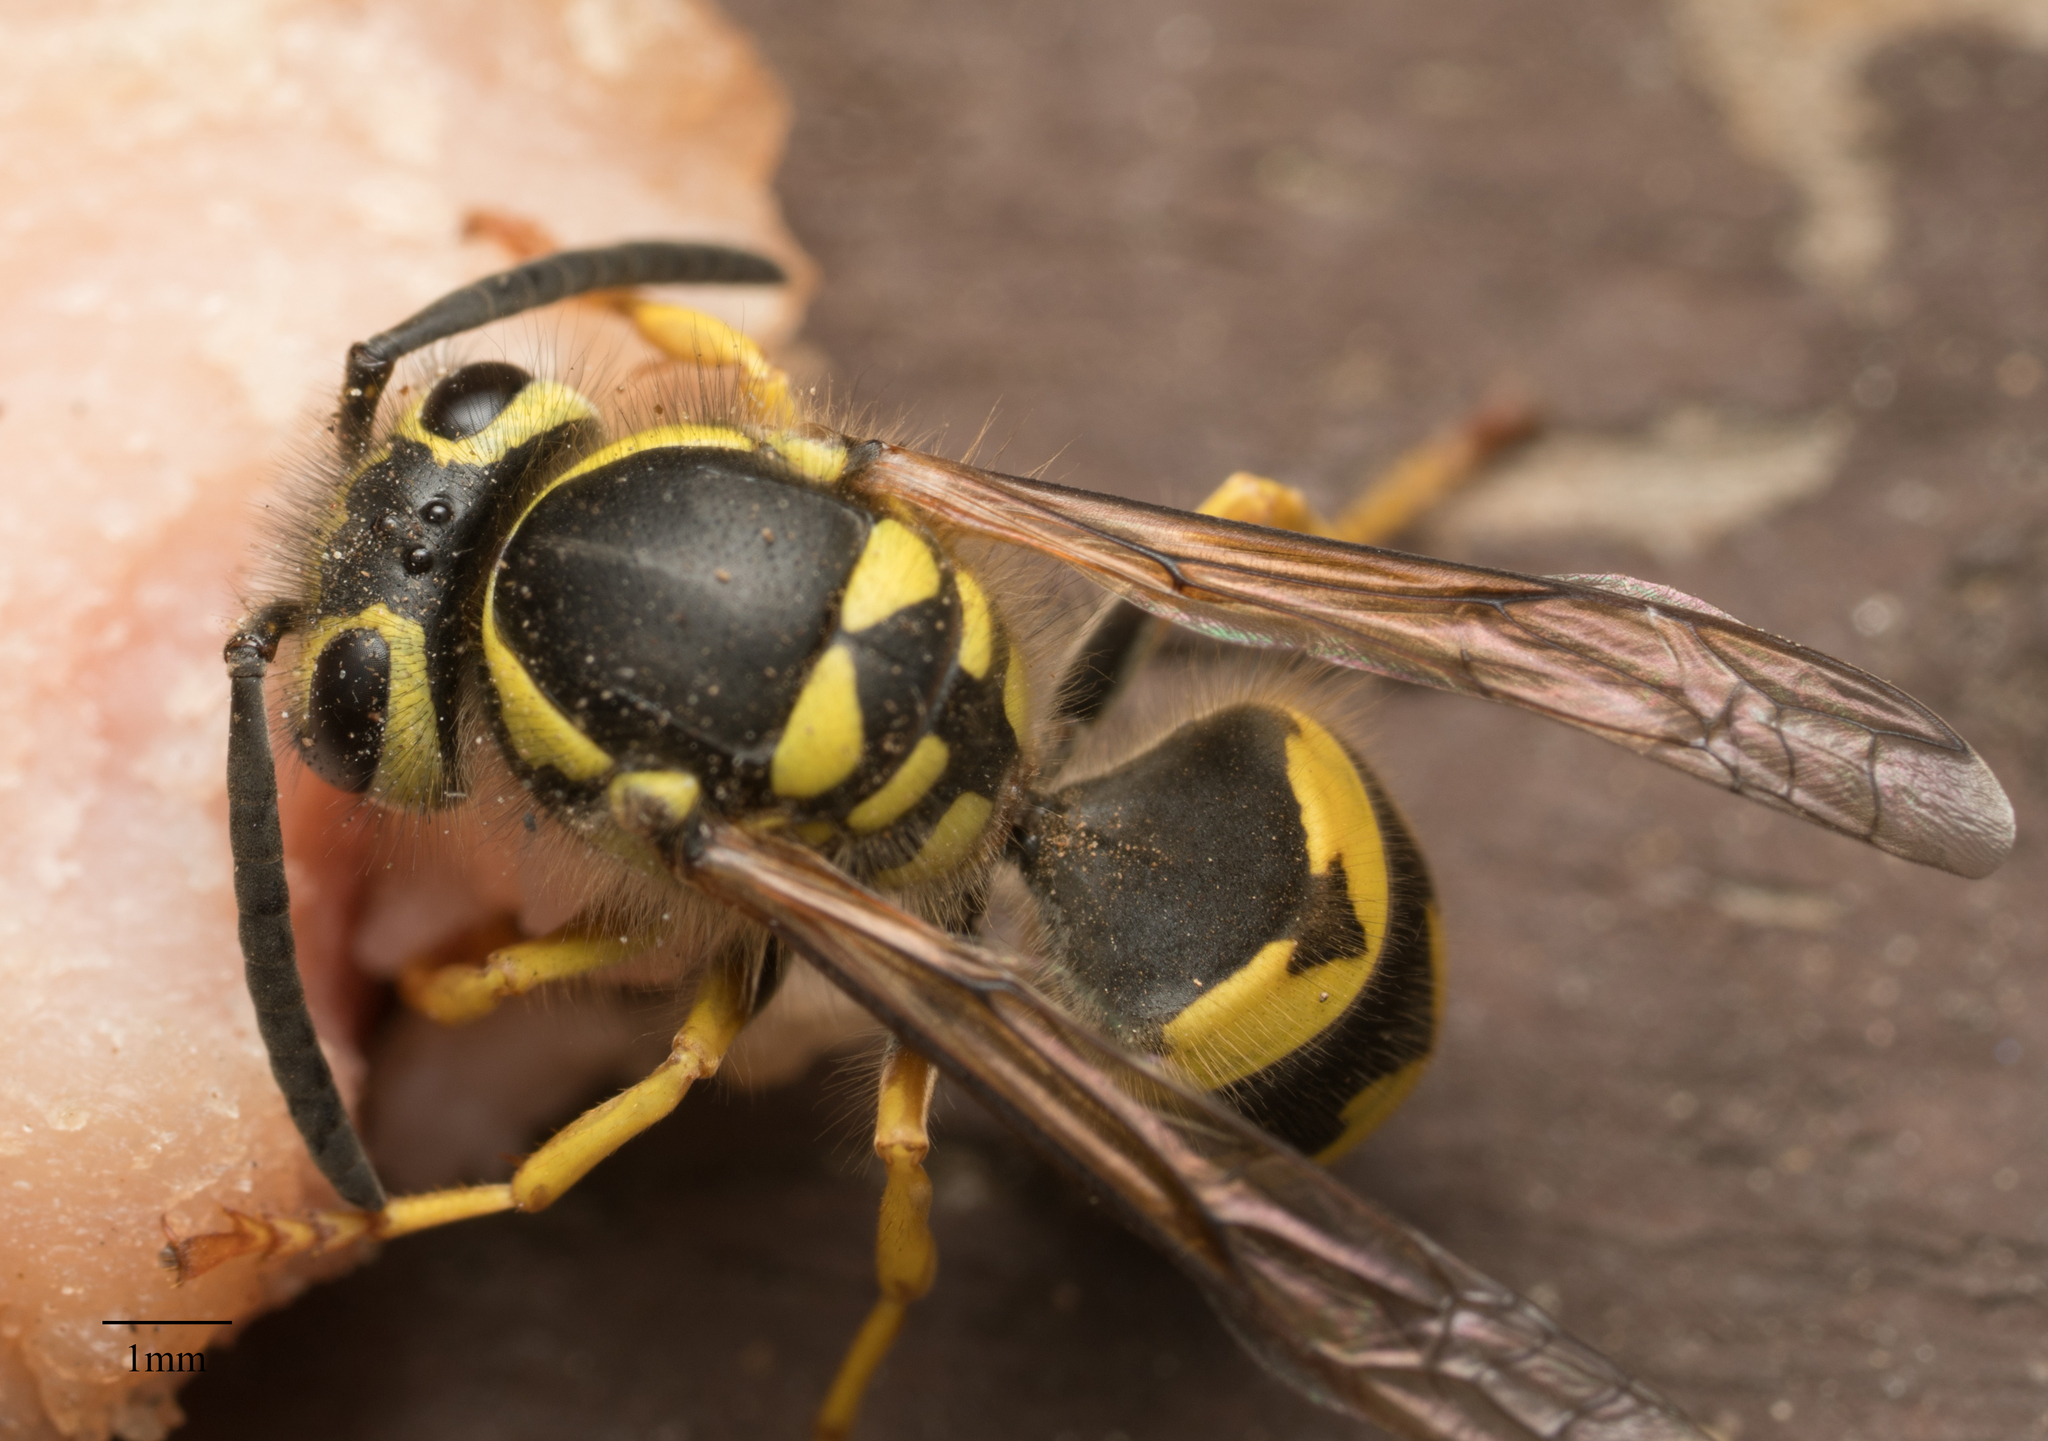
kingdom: Animalia
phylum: Arthropoda
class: Insecta
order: Hymenoptera
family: Vespidae
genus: Vespula
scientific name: Vespula pensylvanica
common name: Western yellowjacket
